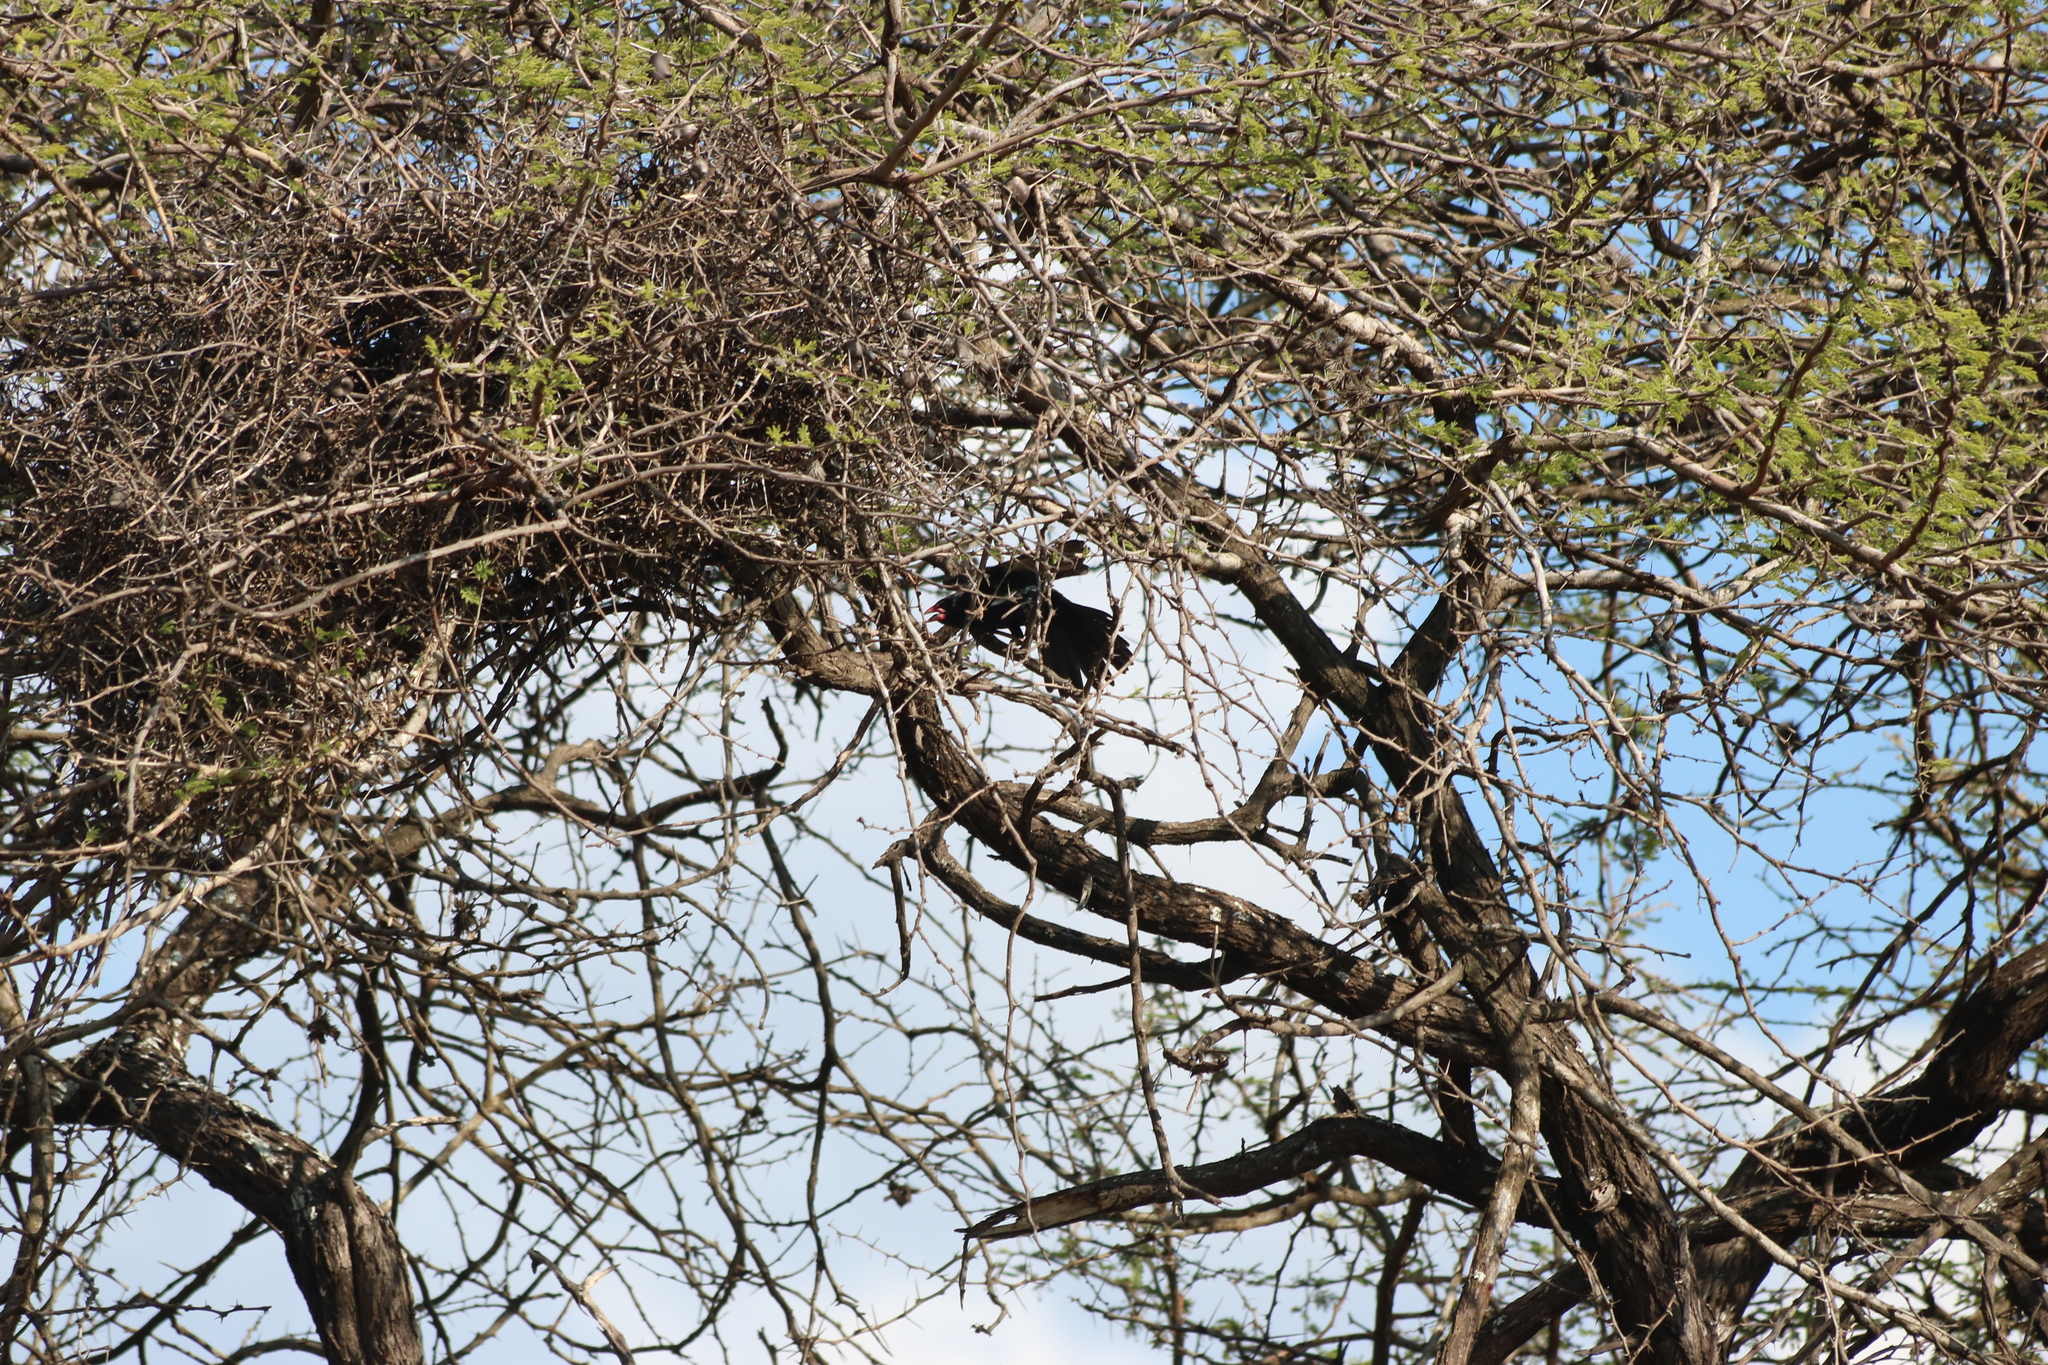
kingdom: Animalia
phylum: Chordata
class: Aves
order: Passeriformes
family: Ploceidae
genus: Bubalornis
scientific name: Bubalornis niger
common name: Red-billed buffalo weaver
